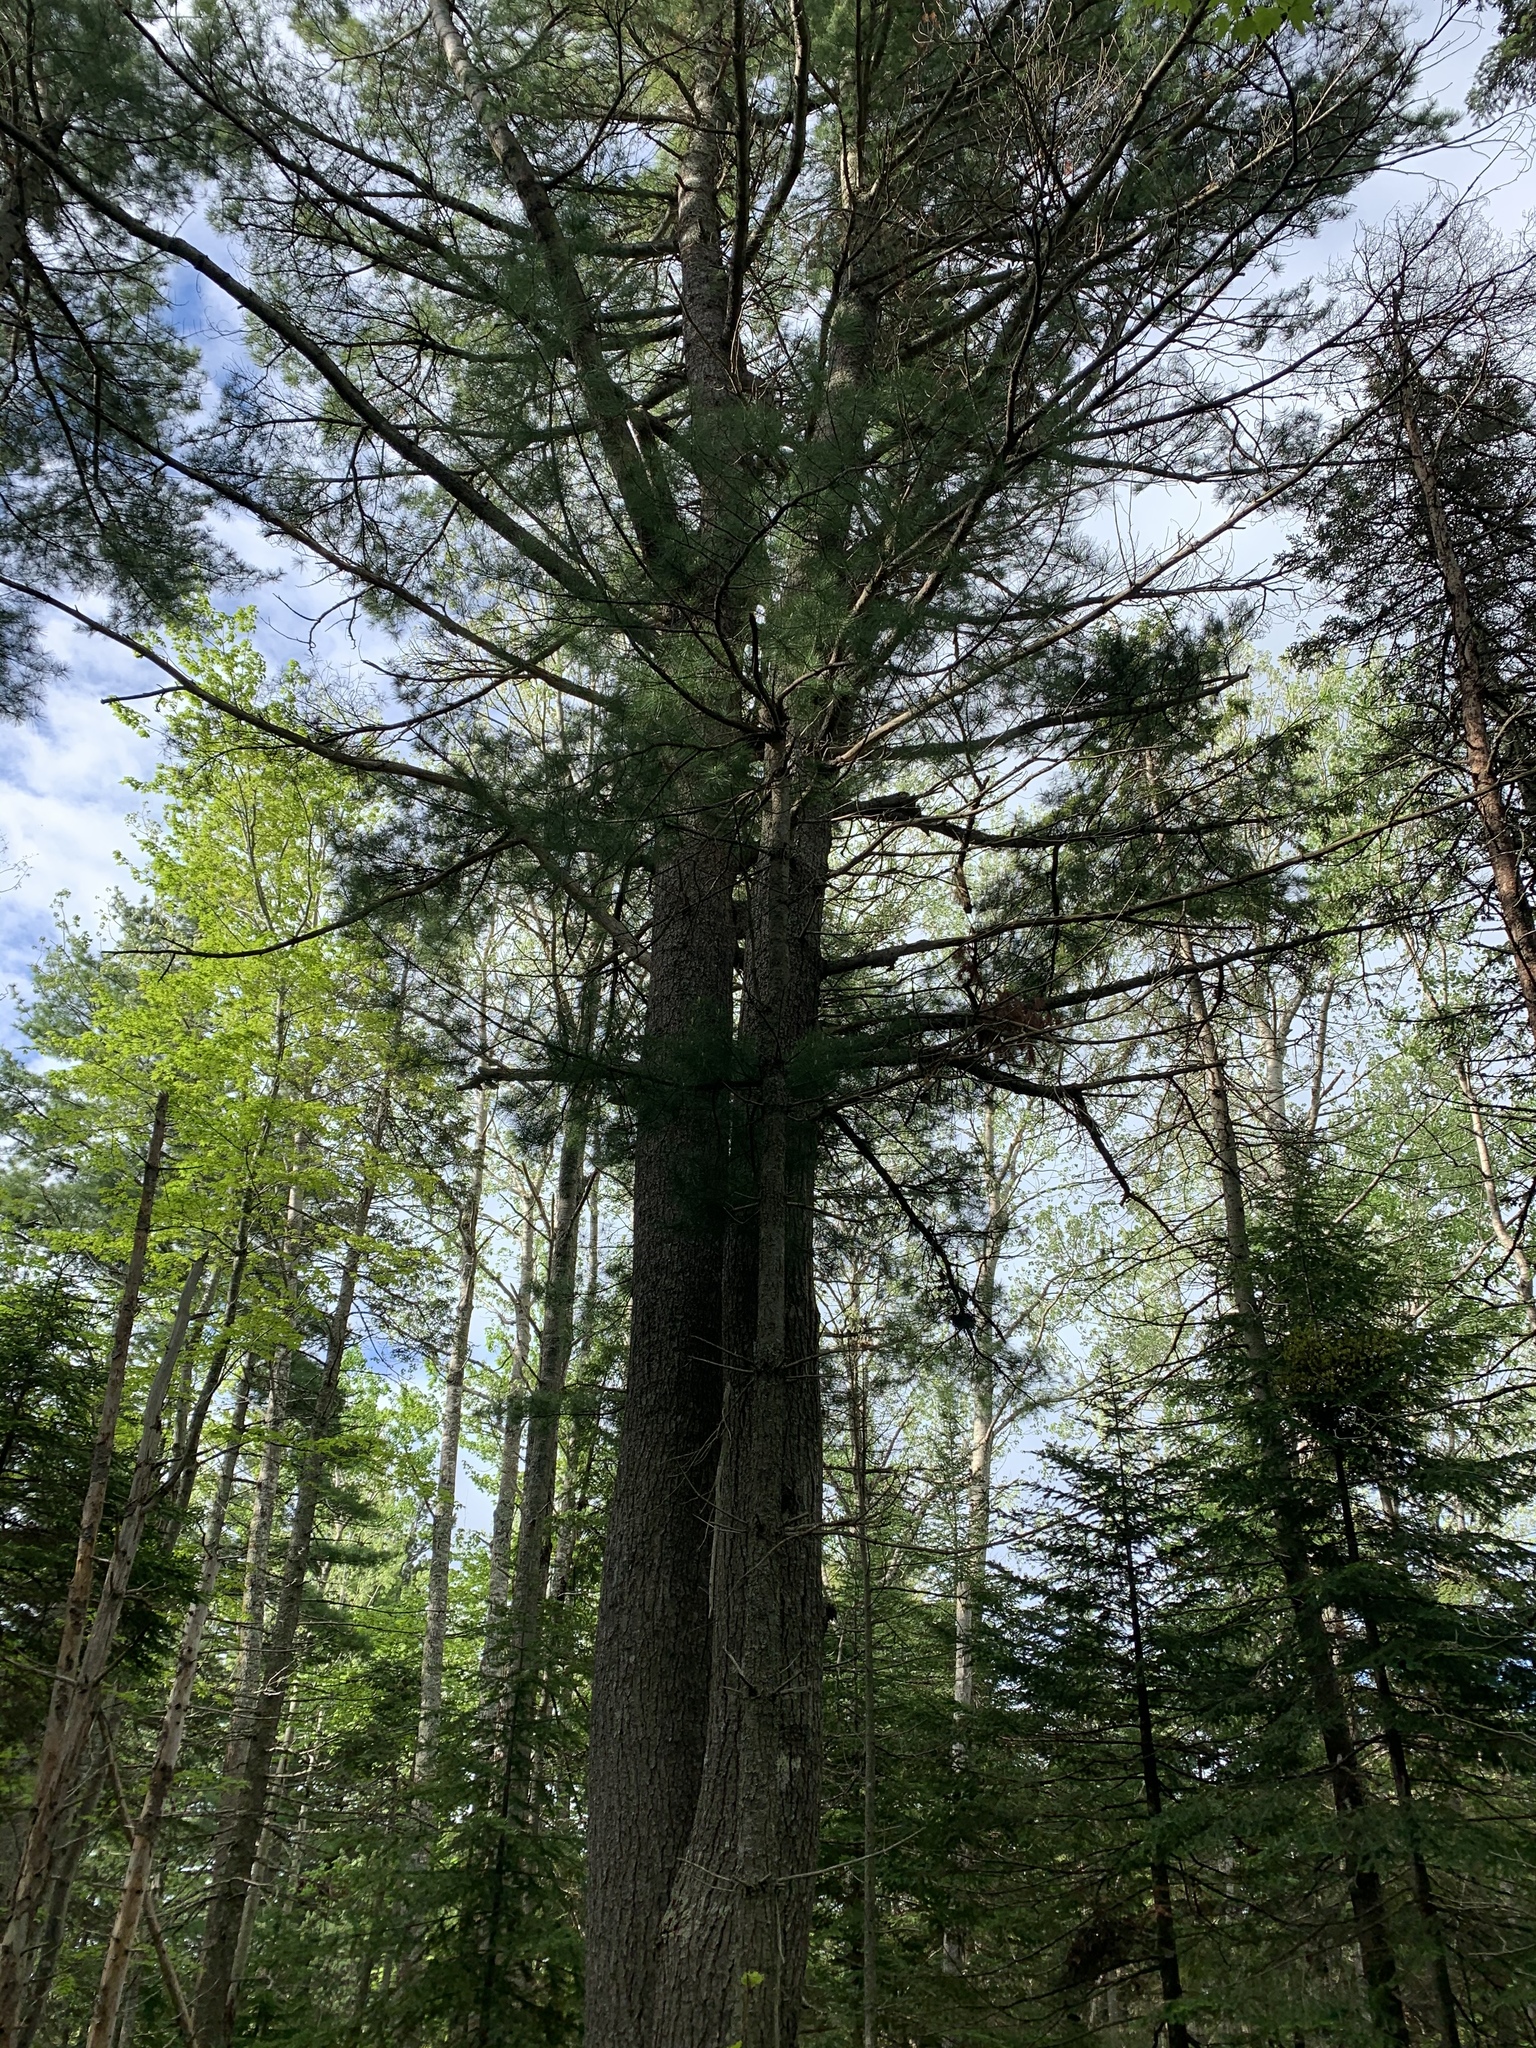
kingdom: Plantae
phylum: Tracheophyta
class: Pinopsida
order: Pinales
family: Pinaceae
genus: Pinus
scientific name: Pinus strobus
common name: Weymouth pine
